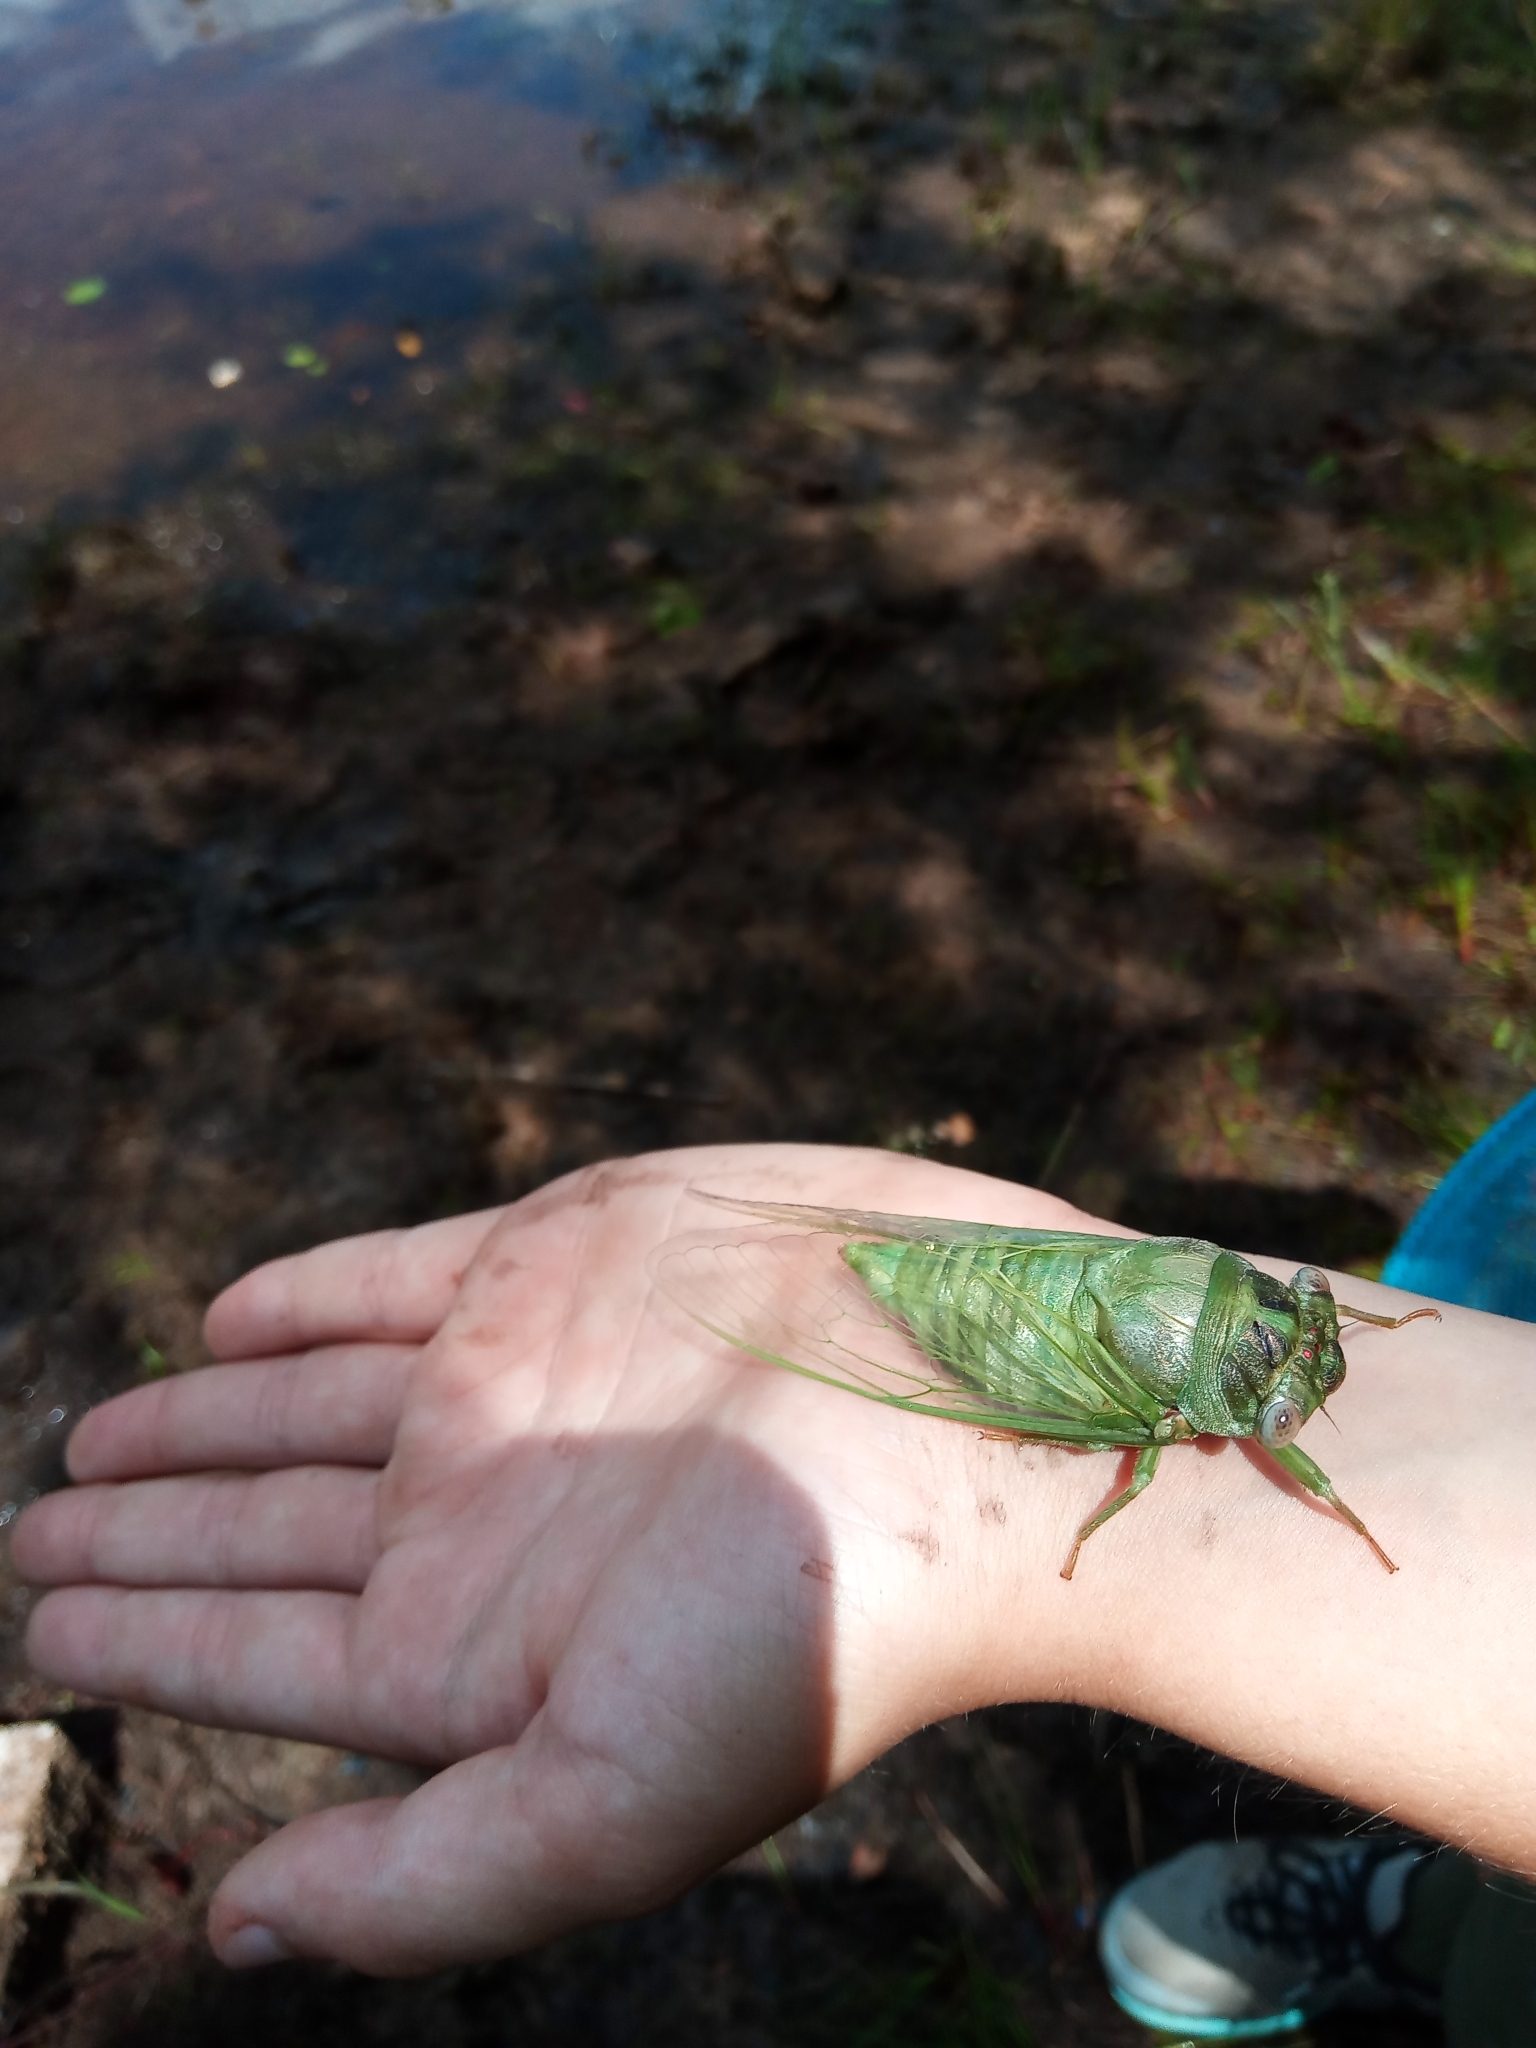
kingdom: Animalia
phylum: Arthropoda
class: Insecta
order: Hemiptera
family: Cicadidae
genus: Diceroprocta
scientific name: Diceroprocta grossa
